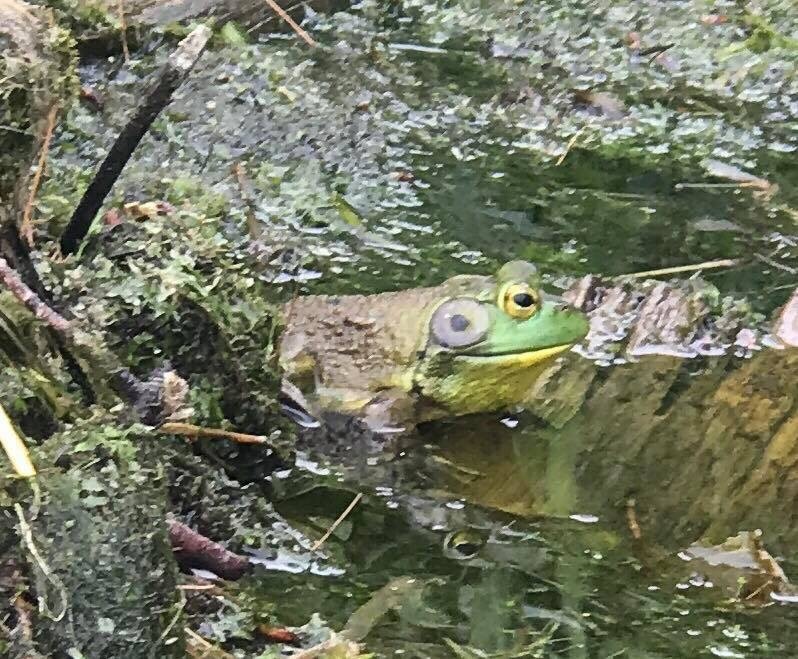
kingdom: Animalia
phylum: Chordata
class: Amphibia
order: Anura
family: Ranidae
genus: Lithobates
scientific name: Lithobates catesbeianus
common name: American bullfrog
